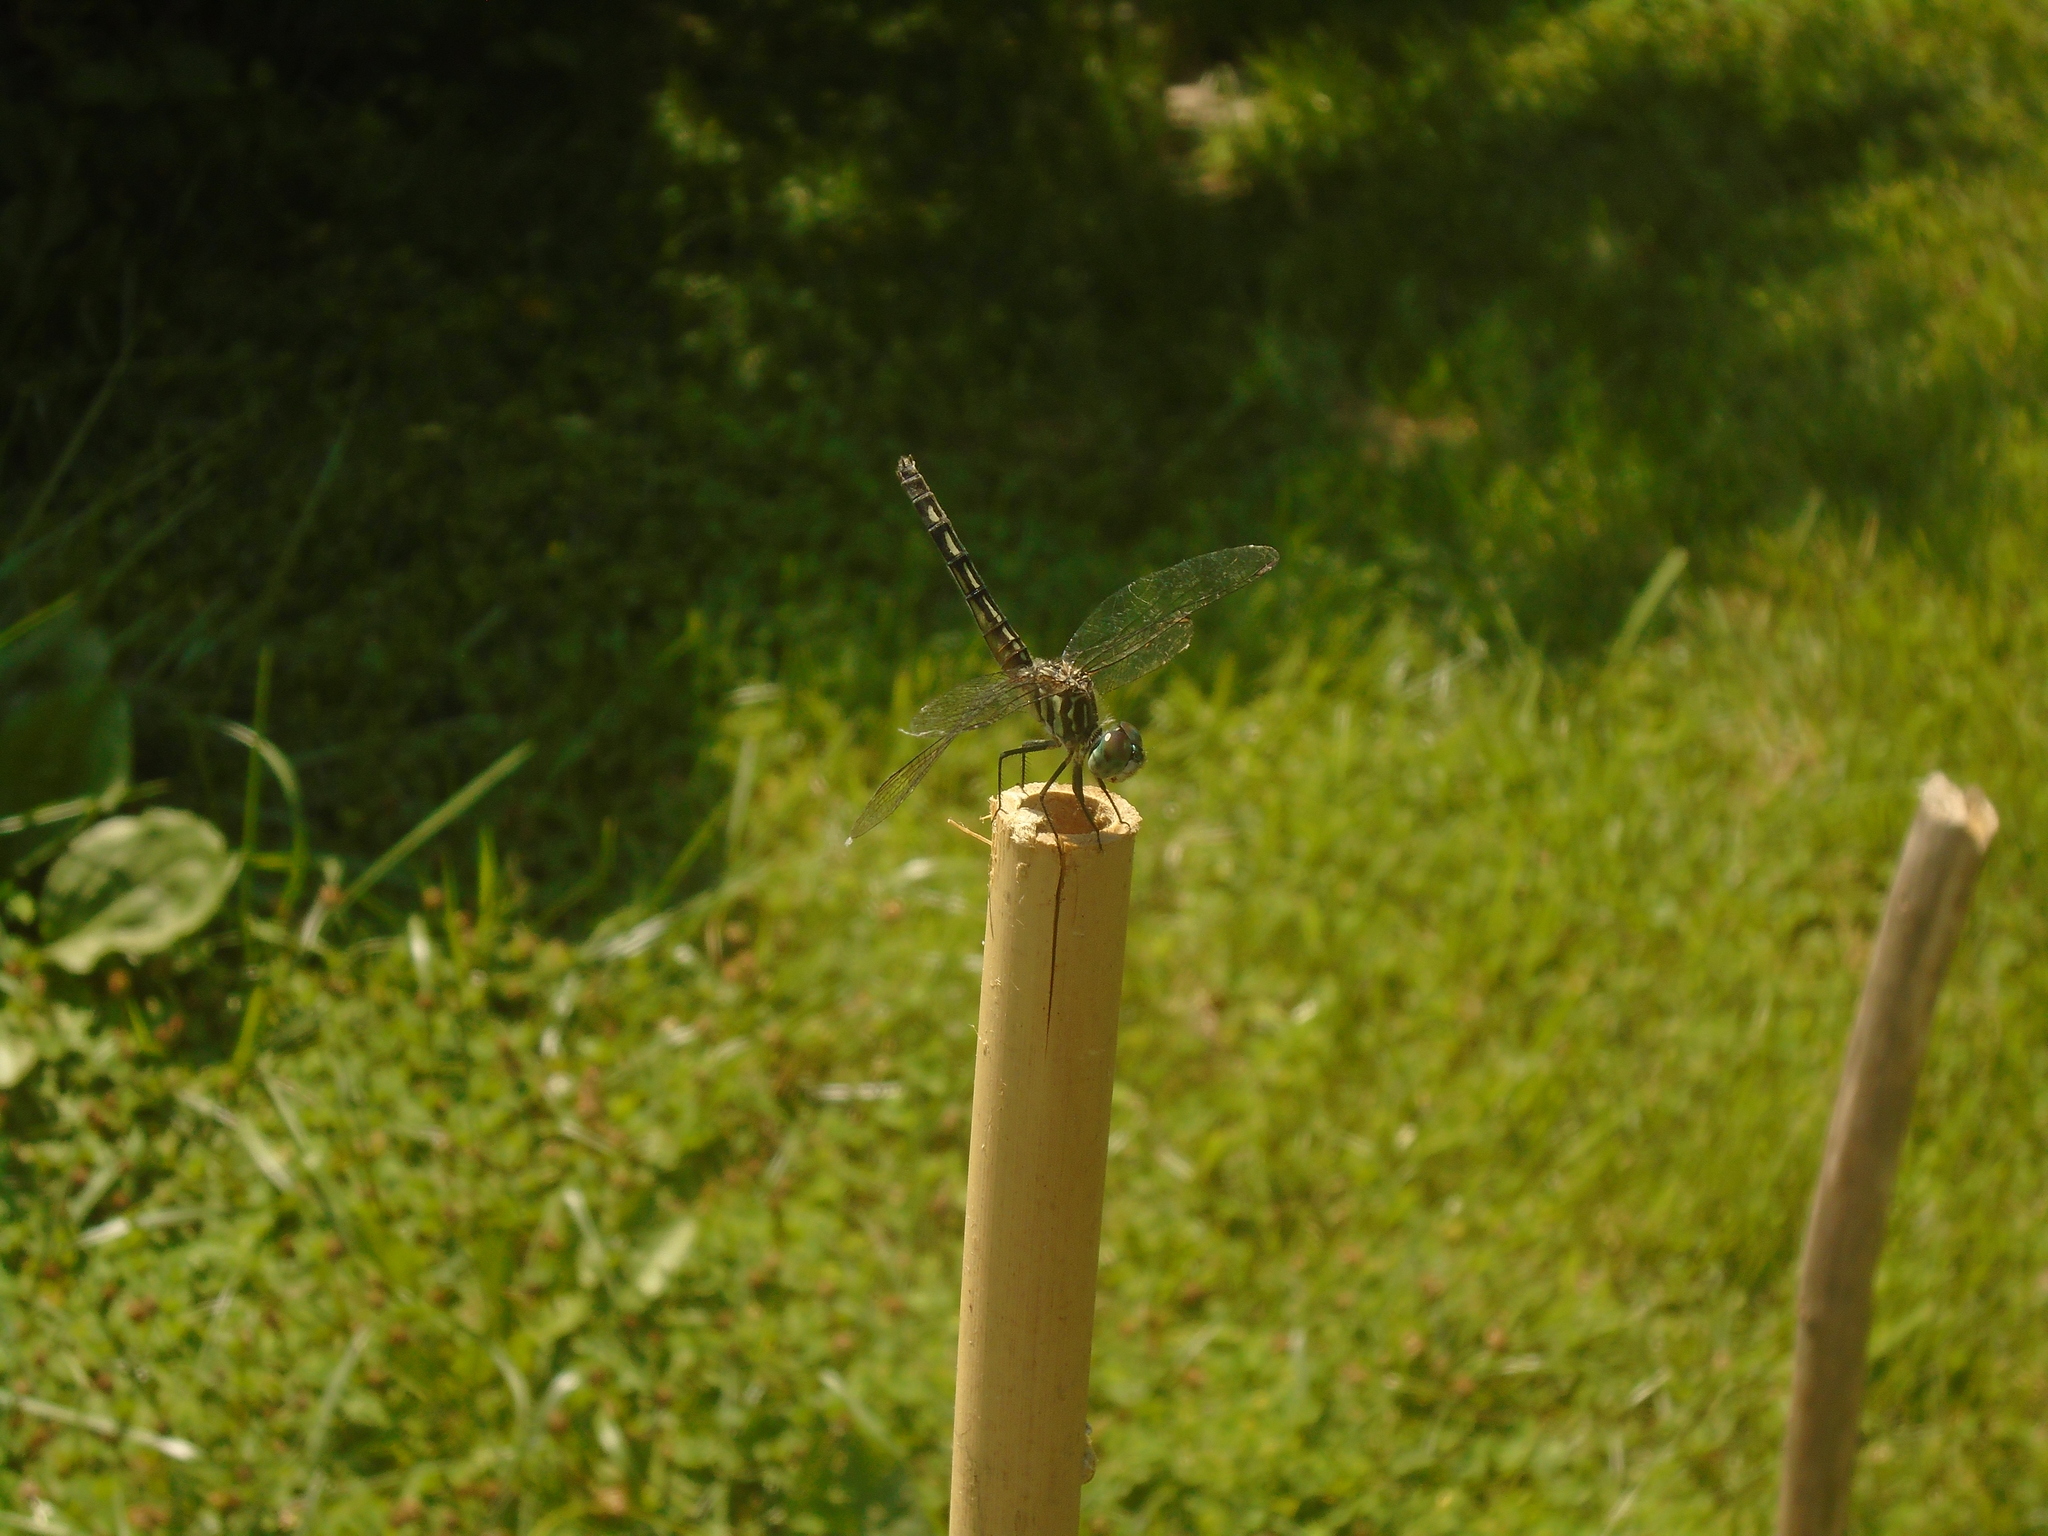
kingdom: Animalia
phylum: Arthropoda
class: Insecta
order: Odonata
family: Libellulidae
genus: Pachydiplax
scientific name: Pachydiplax longipennis
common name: Blue dasher
